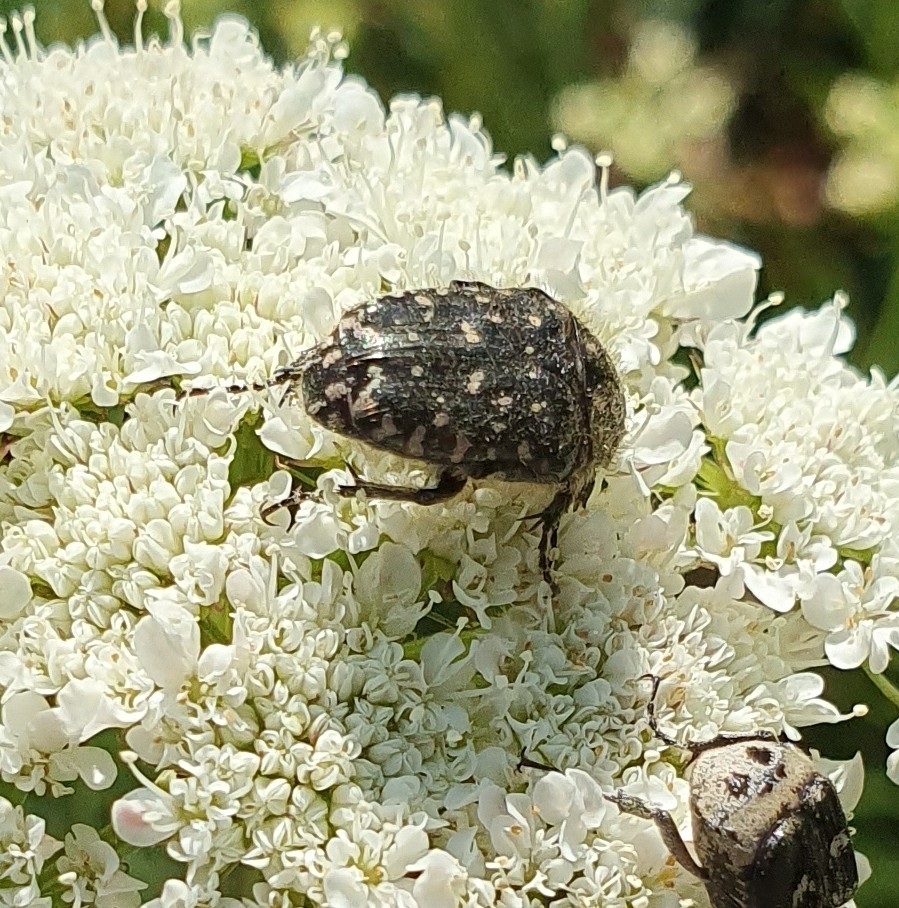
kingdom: Animalia
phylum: Arthropoda
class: Insecta
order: Coleoptera
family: Scarabaeidae
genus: Oxythyrea
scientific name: Oxythyrea funesta
